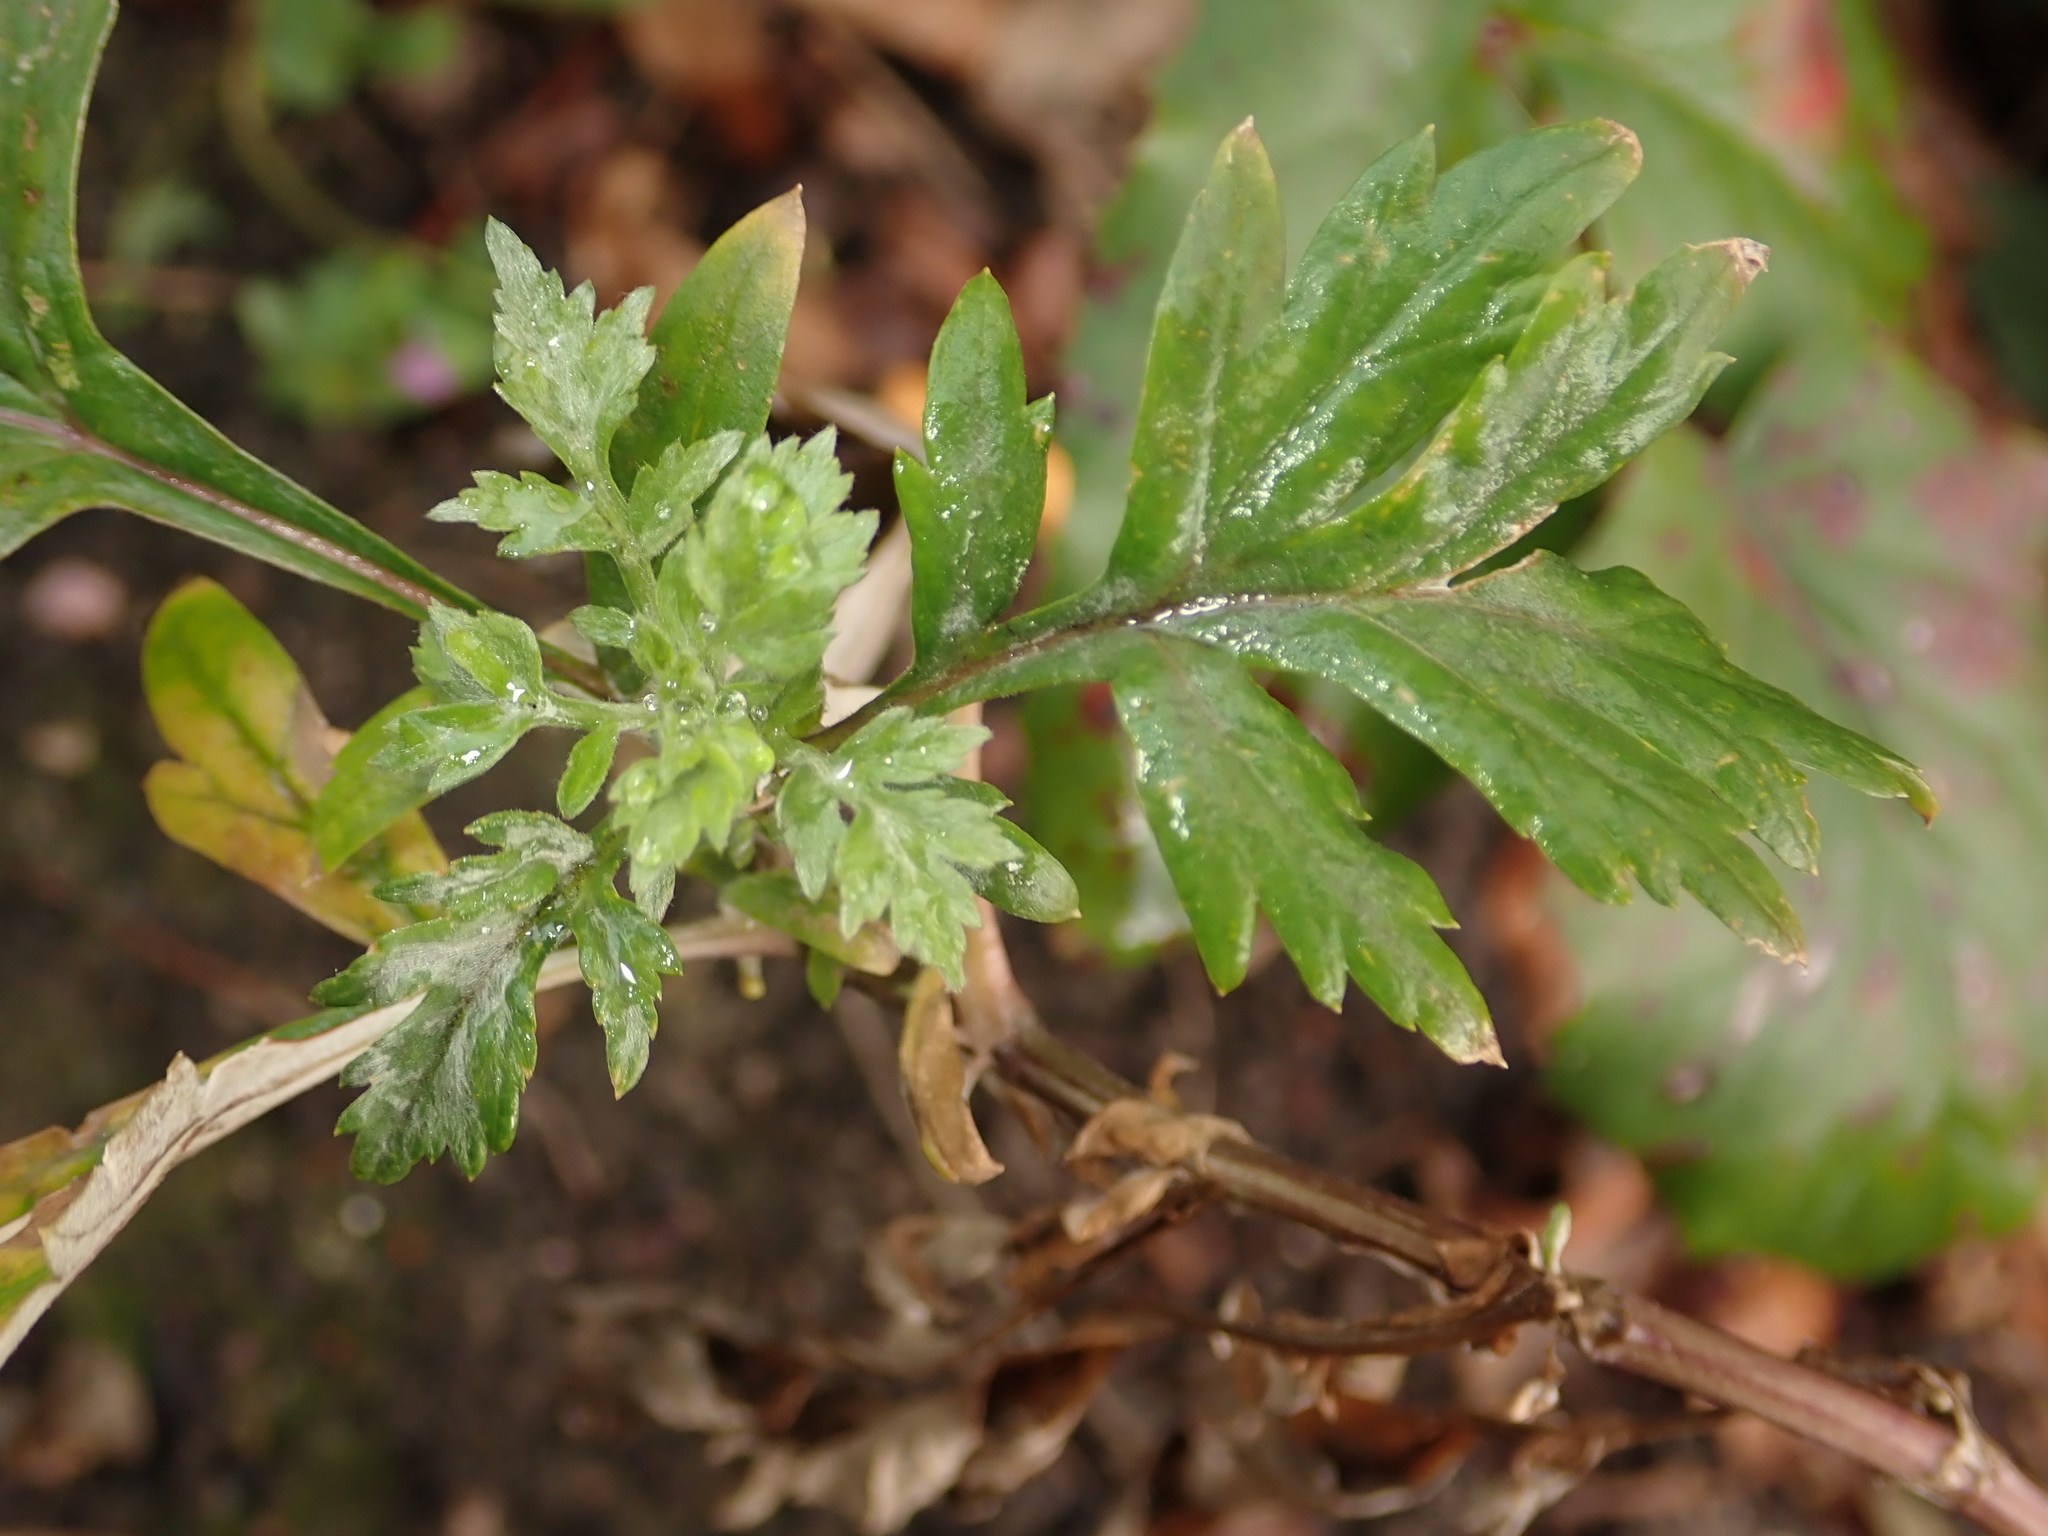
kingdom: Plantae
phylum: Tracheophyta
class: Magnoliopsida
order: Asterales
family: Asteraceae
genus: Artemisia
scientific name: Artemisia vulgaris
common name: Mugwort
